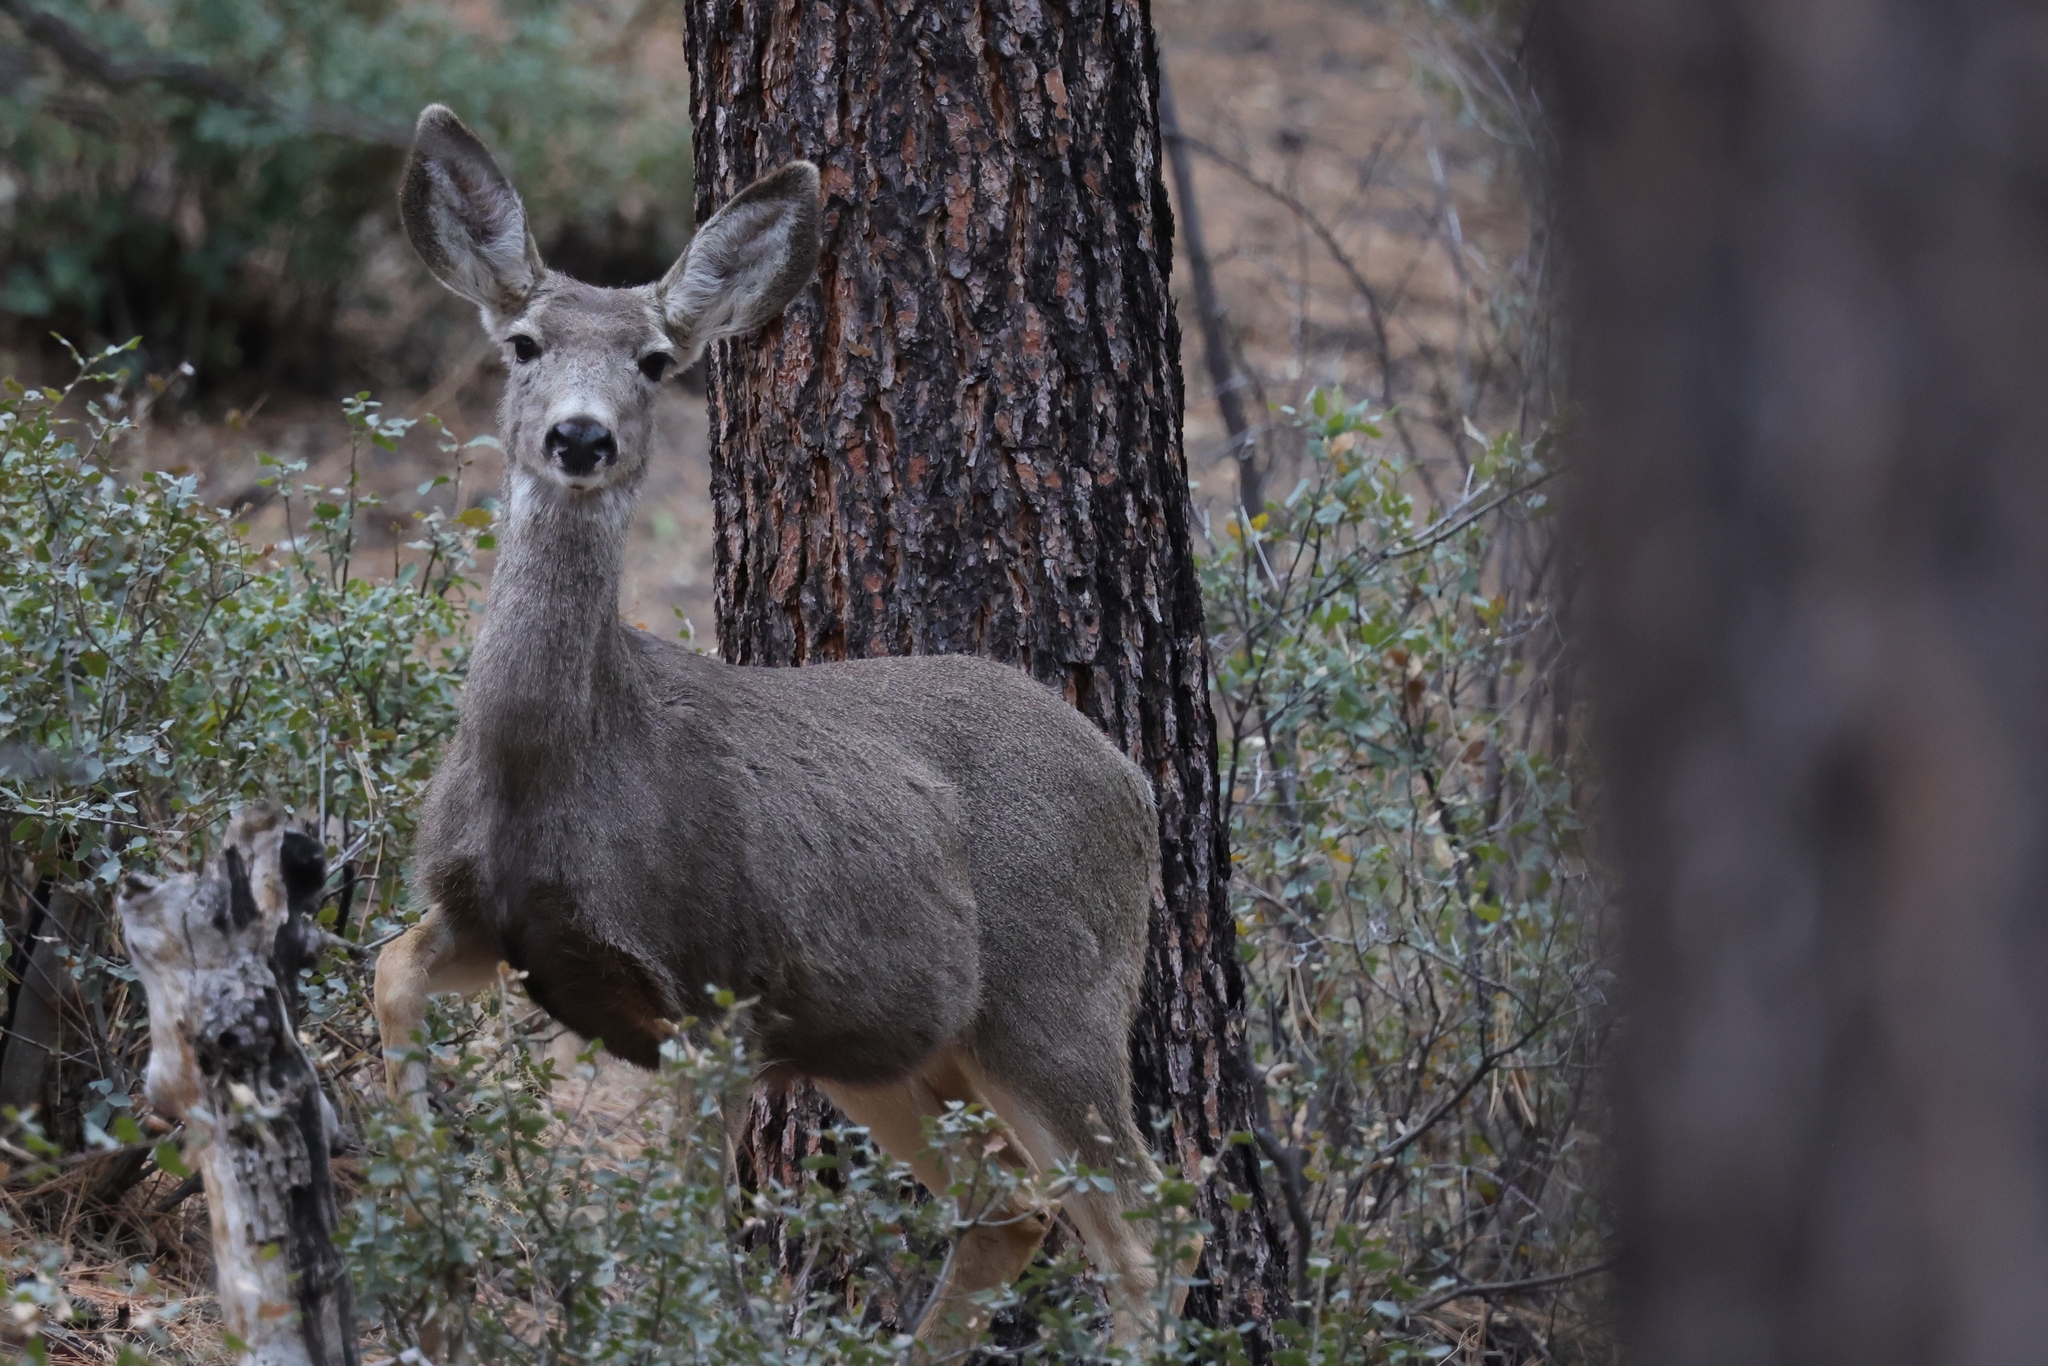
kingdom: Animalia
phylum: Chordata
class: Mammalia
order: Artiodactyla
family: Cervidae
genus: Odocoileus
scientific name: Odocoileus hemionus
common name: Mule deer
